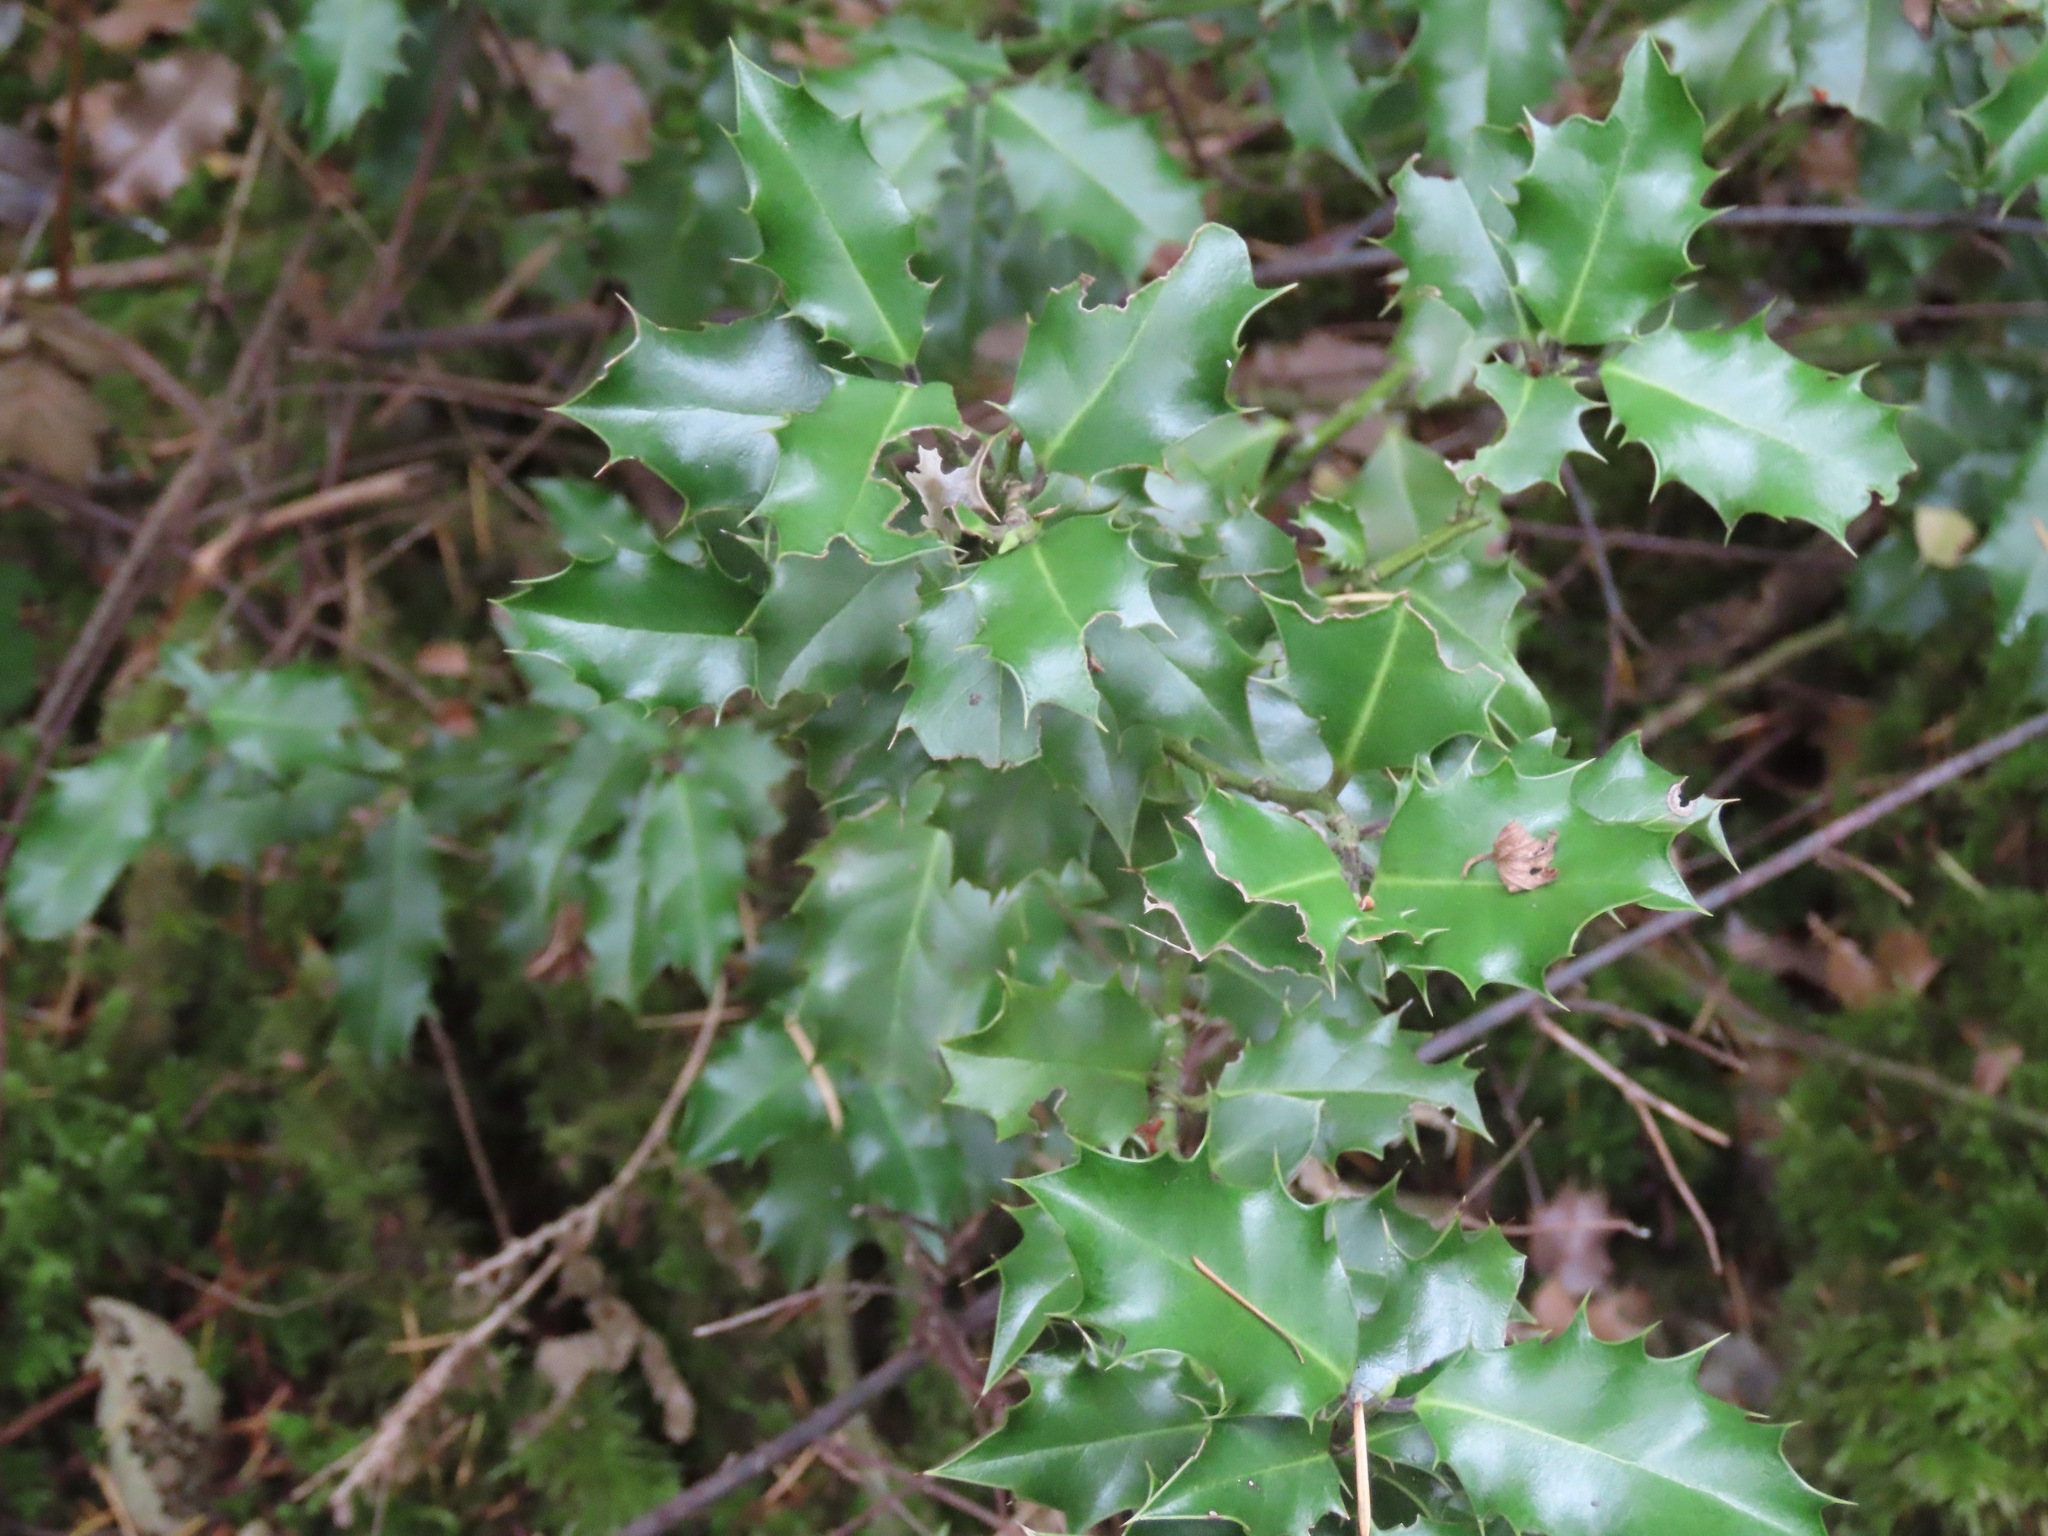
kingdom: Plantae
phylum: Tracheophyta
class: Magnoliopsida
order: Aquifoliales
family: Aquifoliaceae
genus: Ilex
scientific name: Ilex aquifolium
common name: English holly
